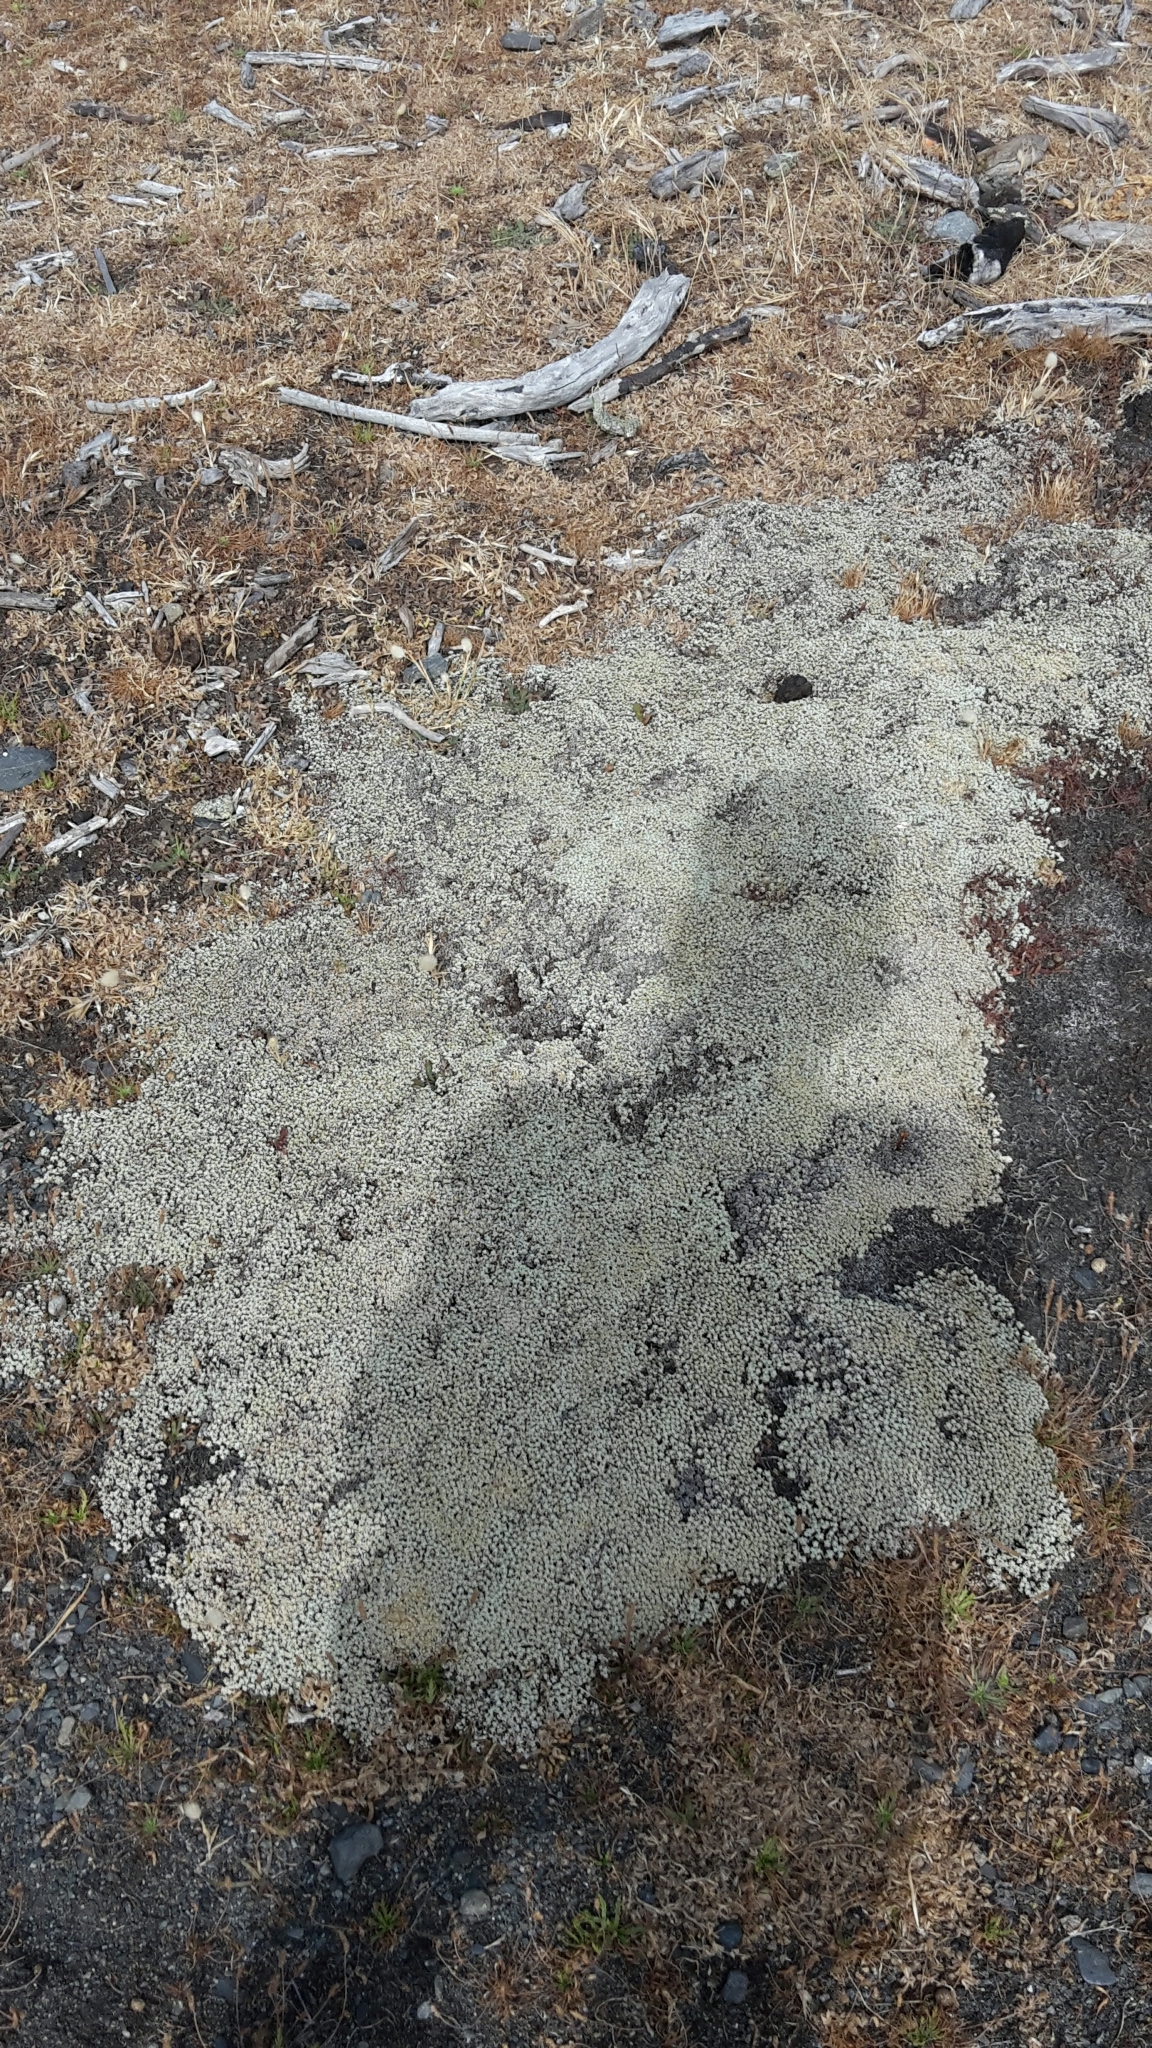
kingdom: Plantae
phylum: Tracheophyta
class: Magnoliopsida
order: Asterales
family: Asteraceae
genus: Raoulia
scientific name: Raoulia hookeri
